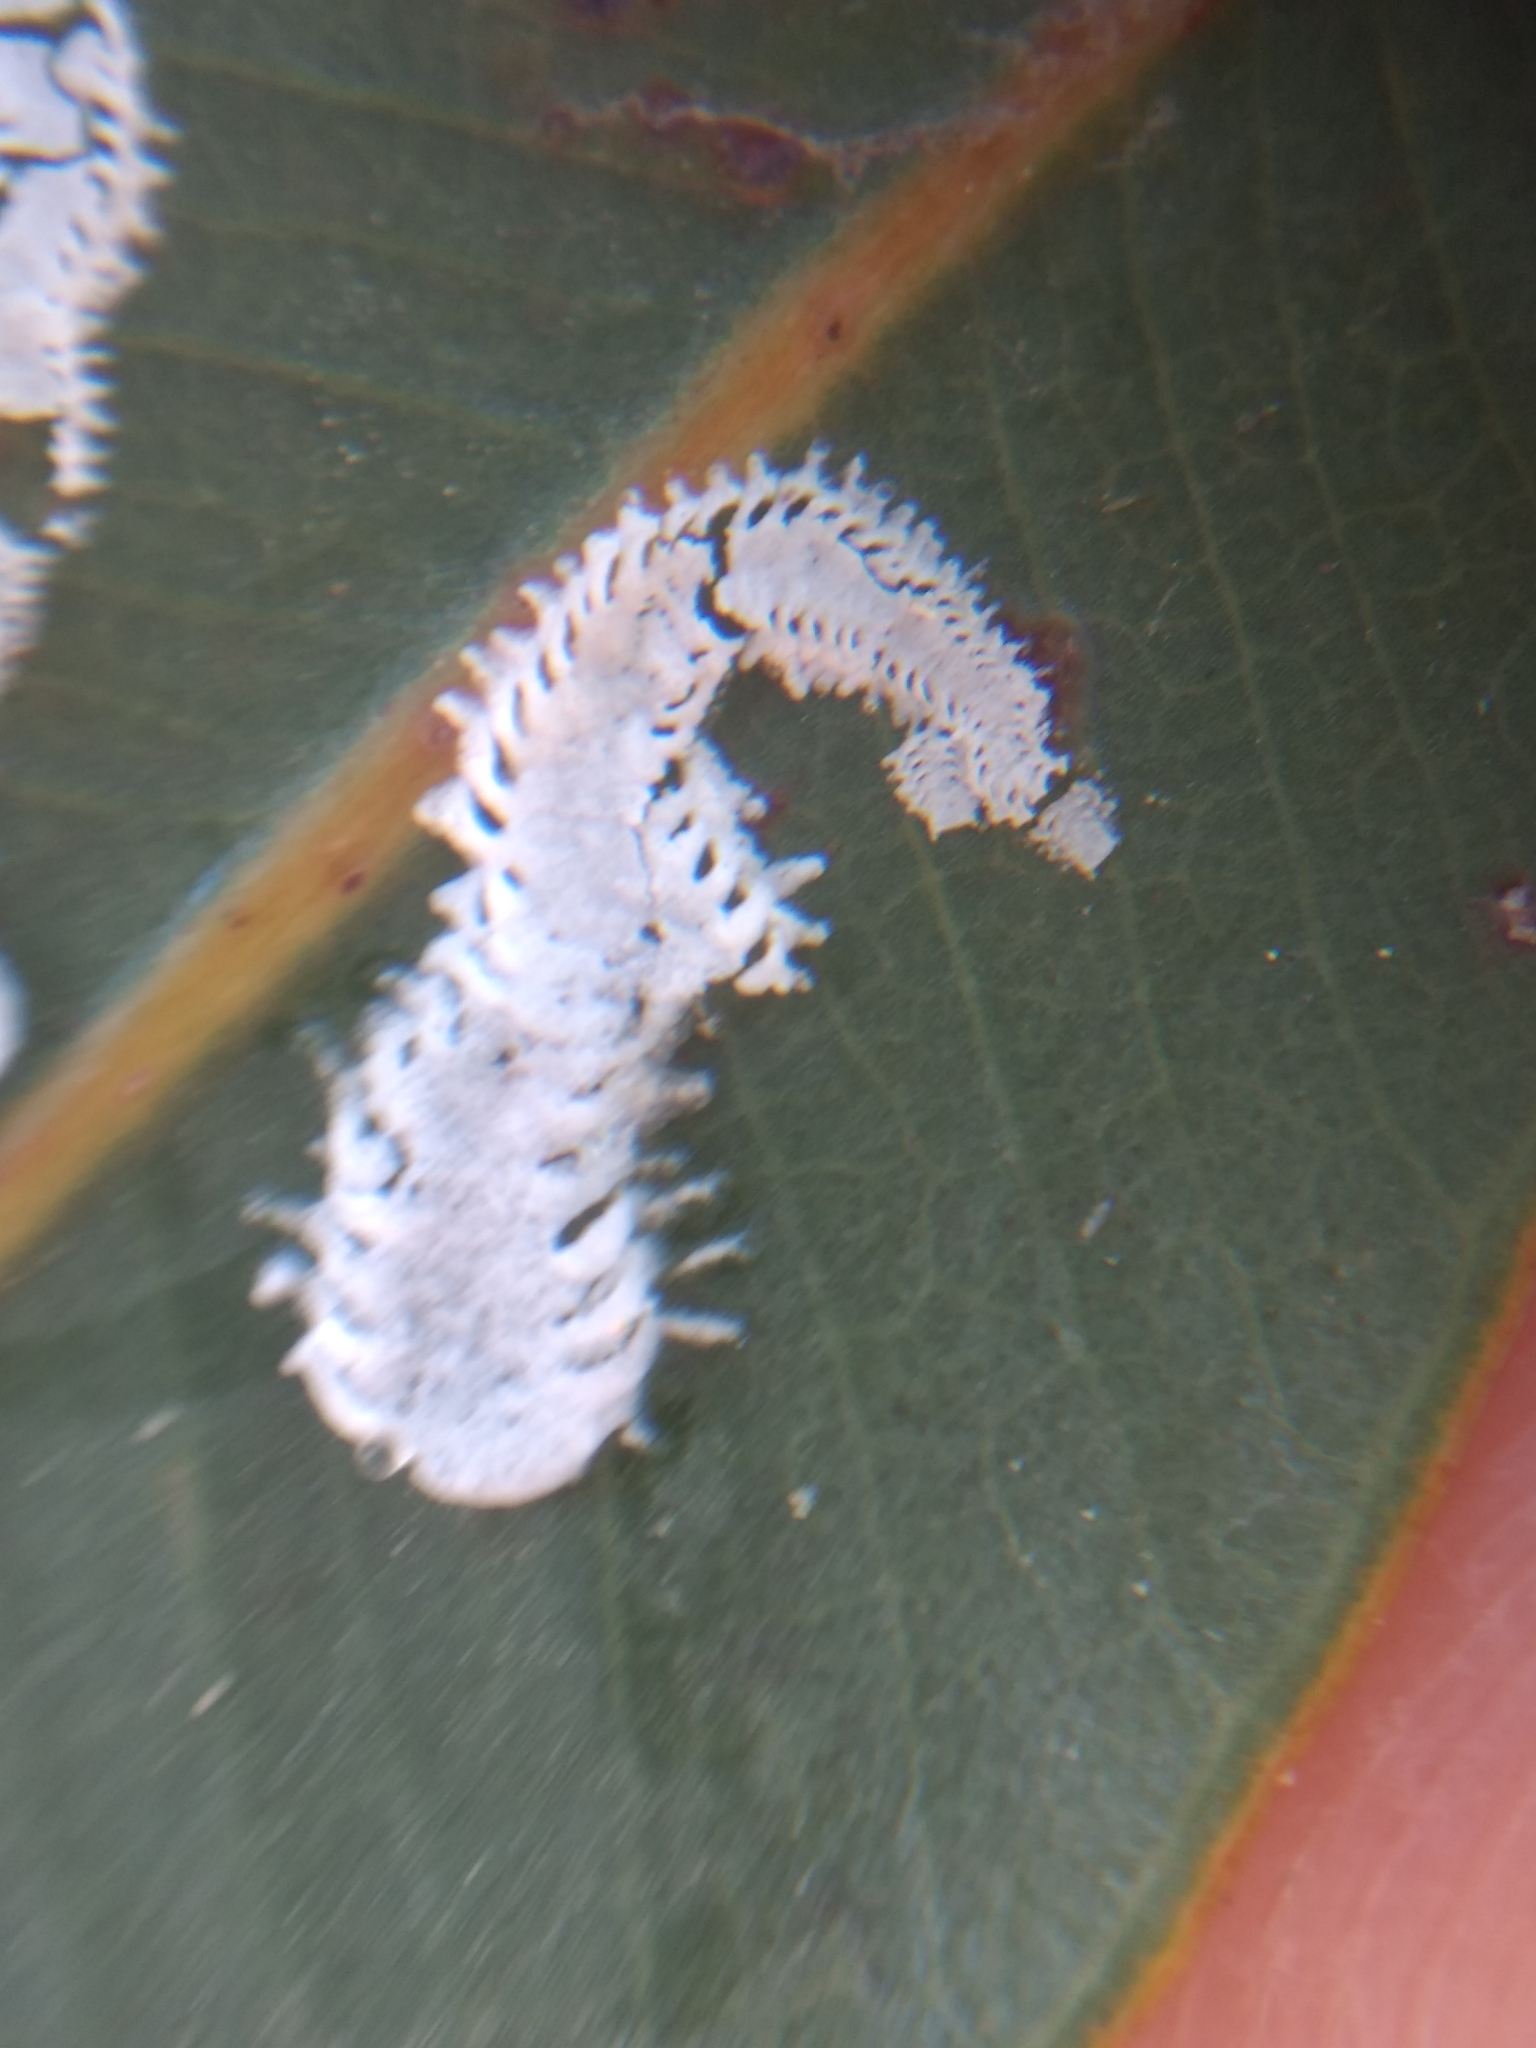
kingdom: Animalia
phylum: Arthropoda
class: Insecta
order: Hemiptera
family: Aphalaridae
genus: Eucalyptolyma
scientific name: Eucalyptolyma maideni
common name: Spotted gum lerp psyllid
